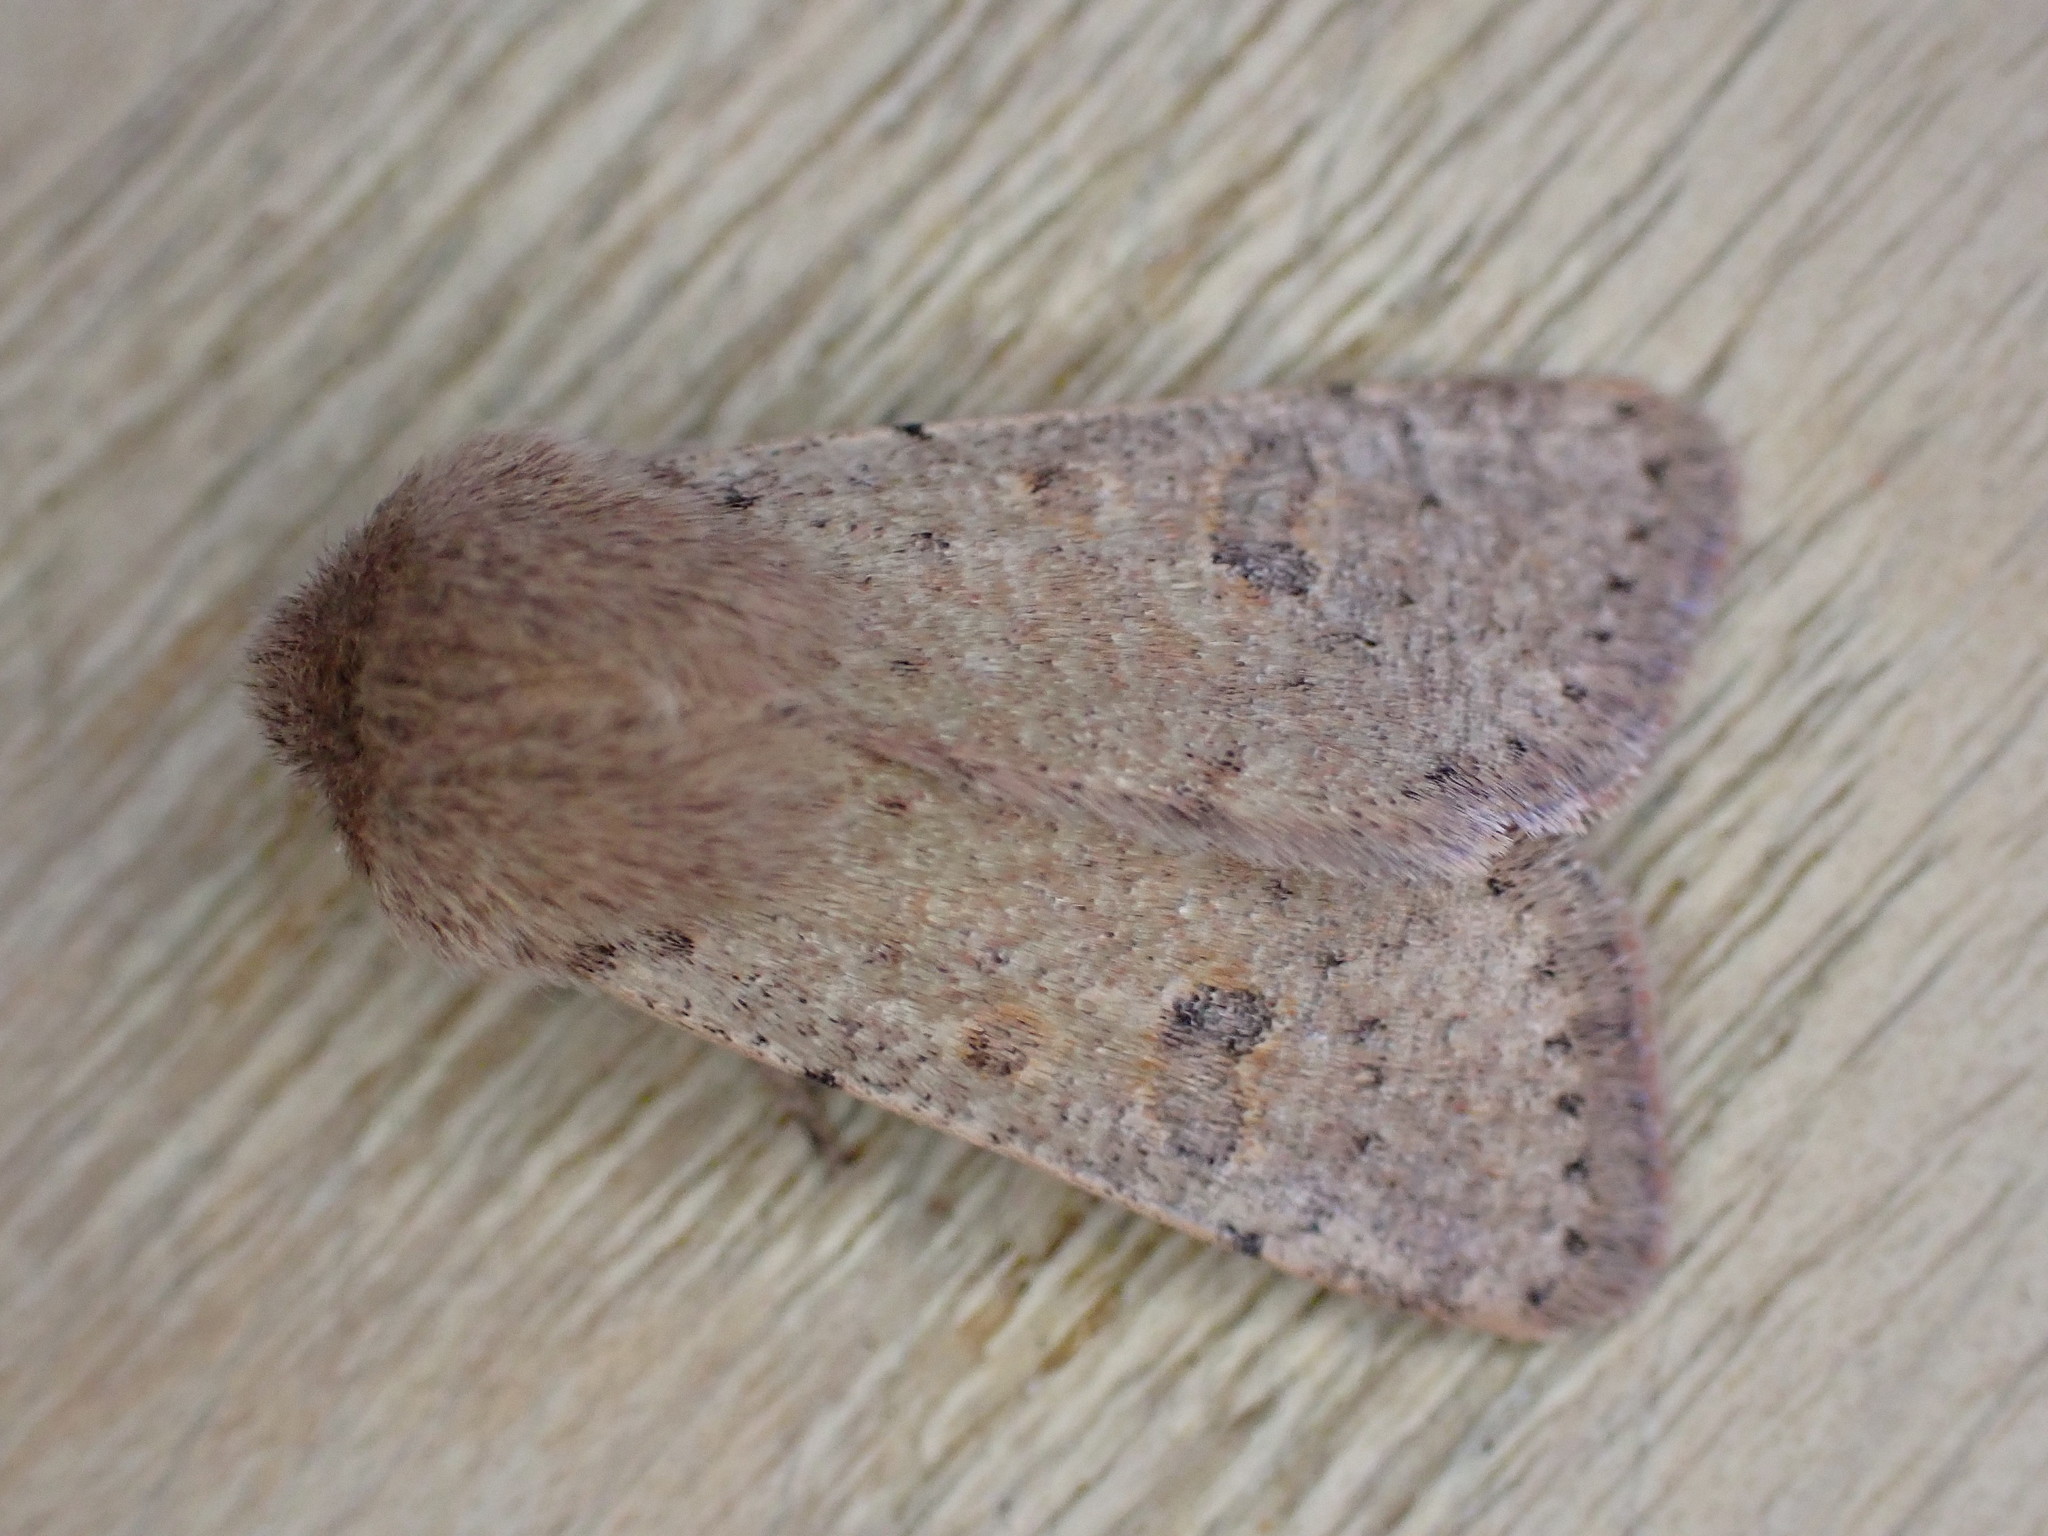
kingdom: Animalia
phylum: Arthropoda
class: Insecta
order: Lepidoptera
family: Noctuidae
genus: Orthosia
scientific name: Orthosia cruda
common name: Small quaker
